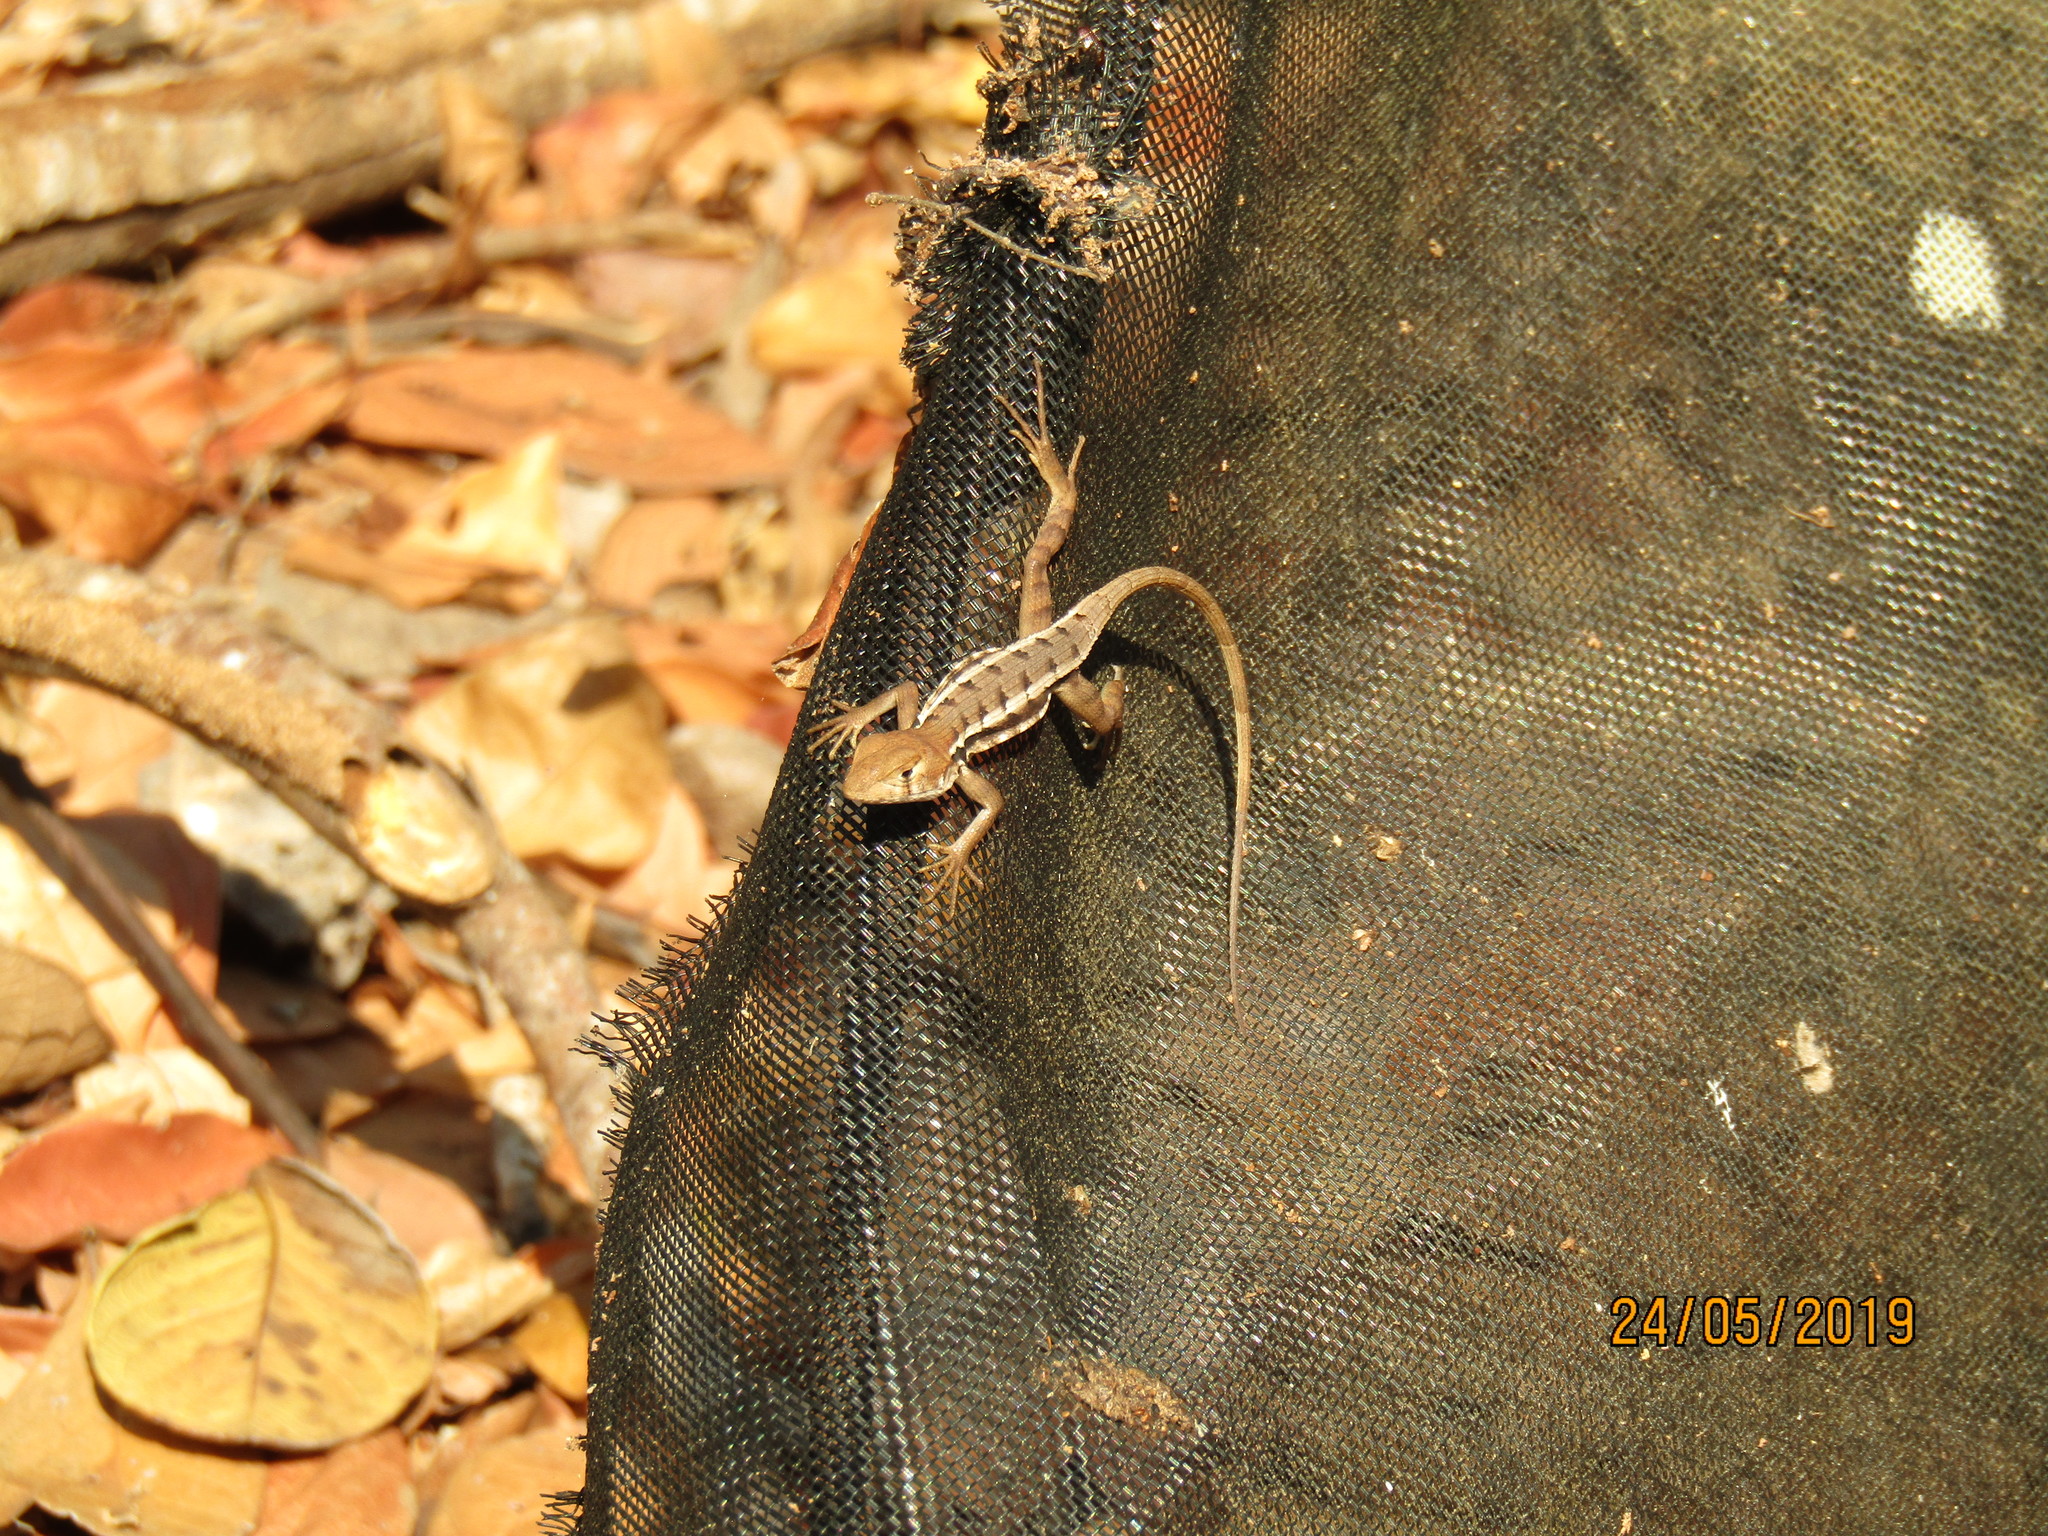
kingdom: Animalia
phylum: Chordata
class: Squamata
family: Phrynosomatidae
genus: Sceloporus
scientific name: Sceloporus utiformis
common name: Antesator
